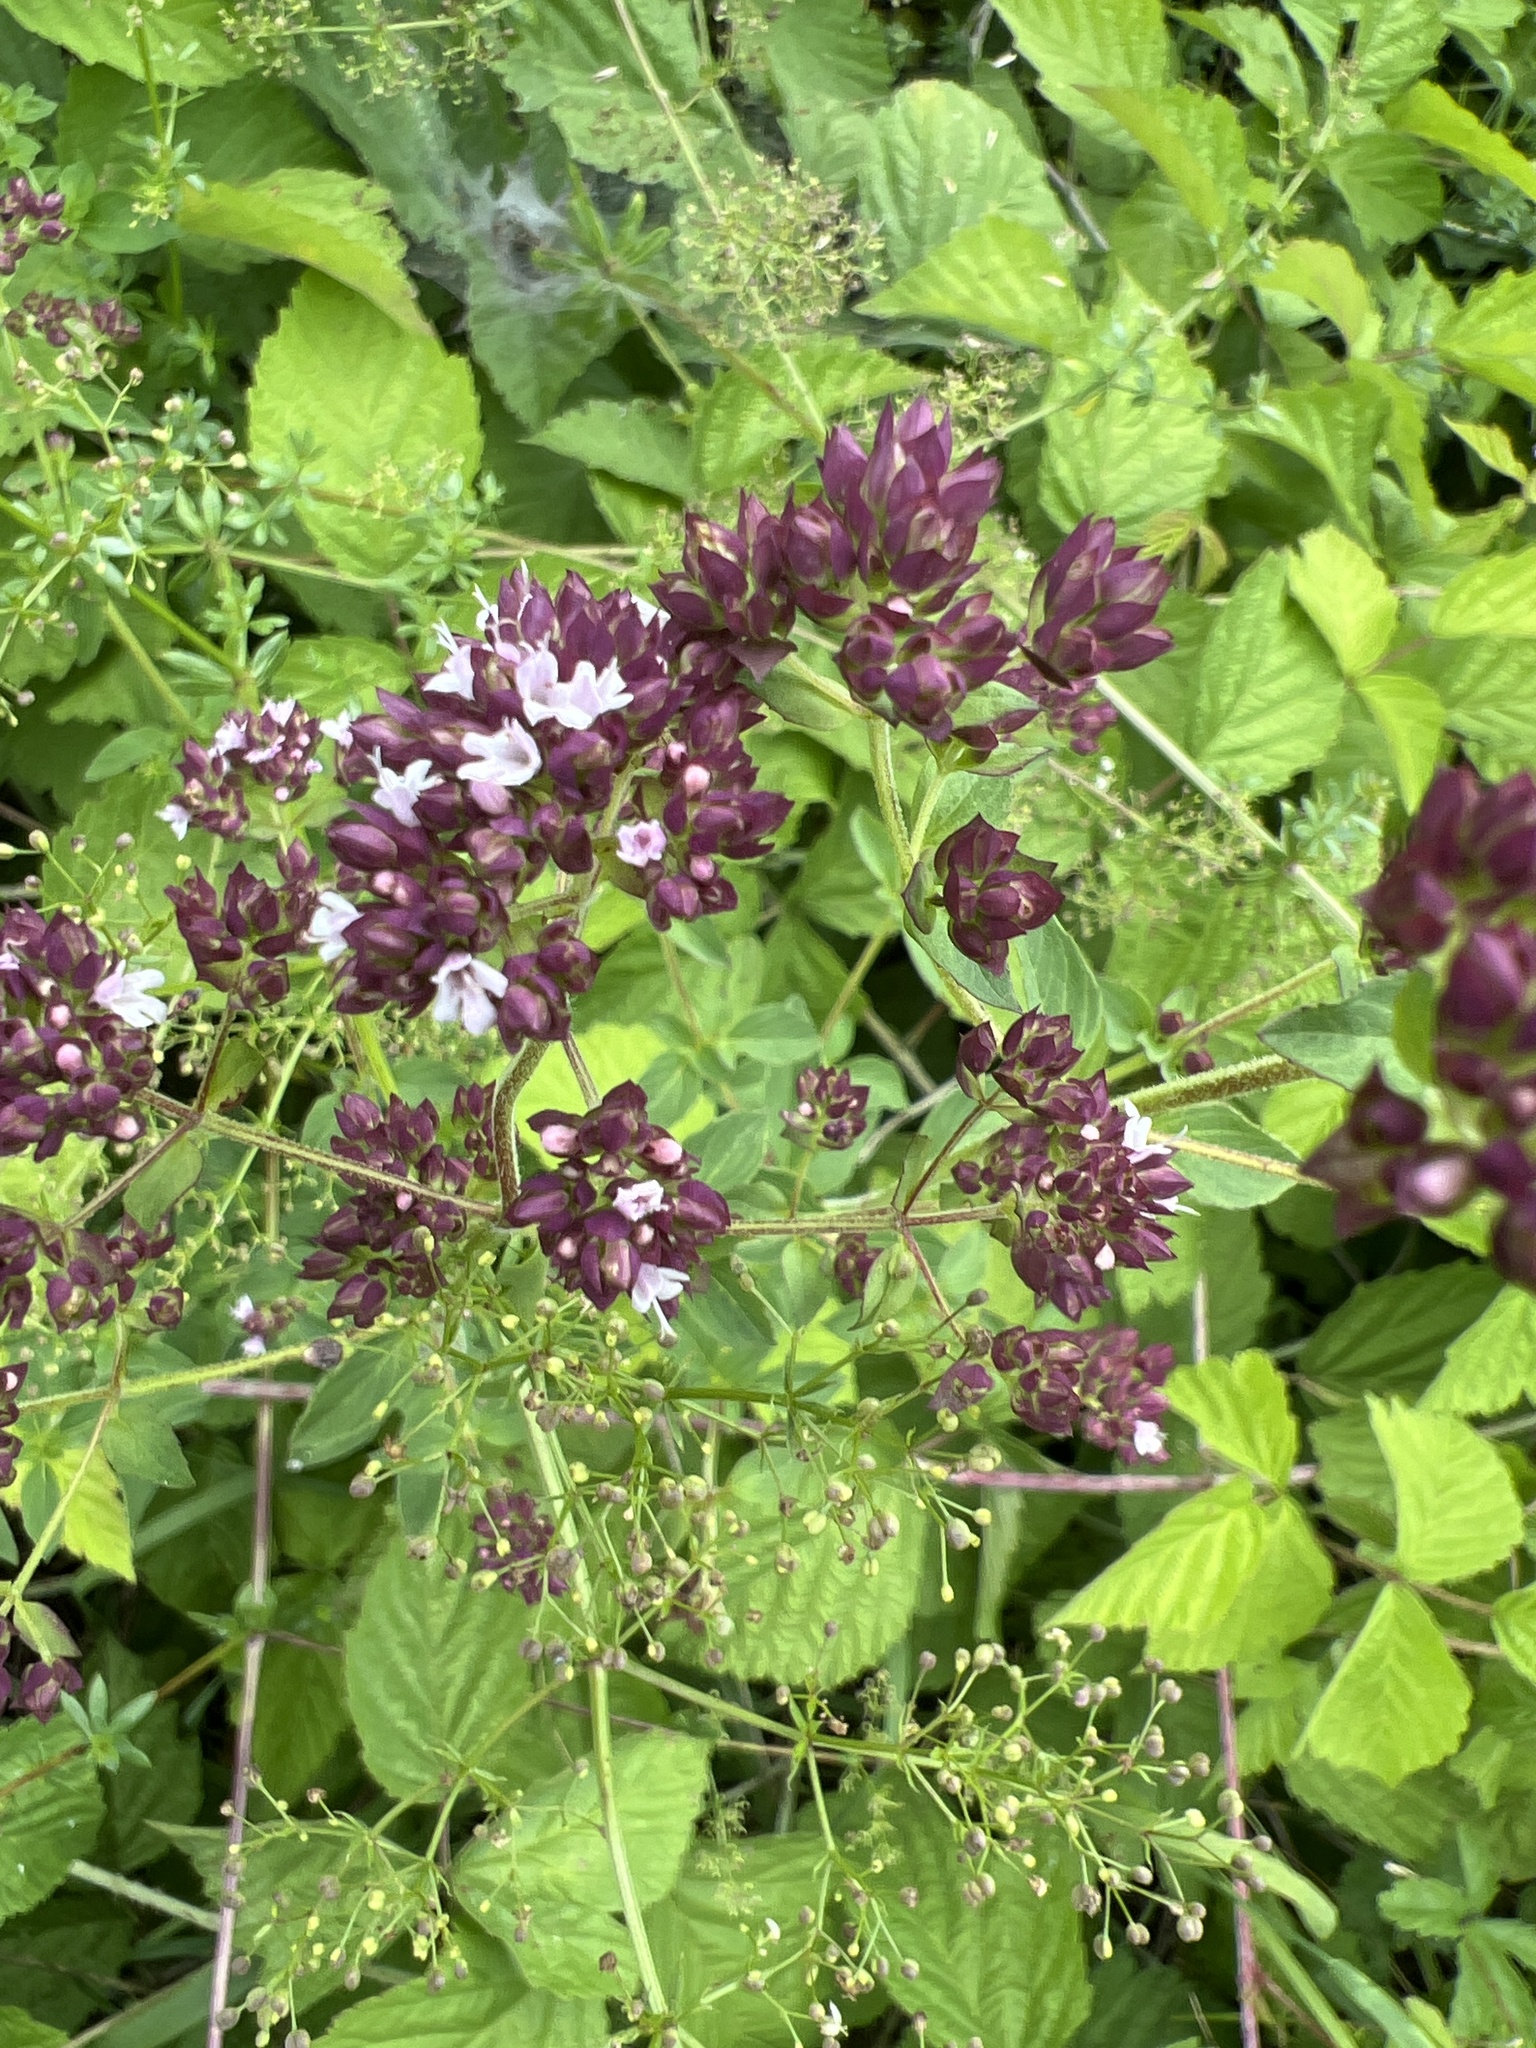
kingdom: Plantae
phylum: Tracheophyta
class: Magnoliopsida
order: Lamiales
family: Lamiaceae
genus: Origanum
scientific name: Origanum vulgare
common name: Wild marjoram
